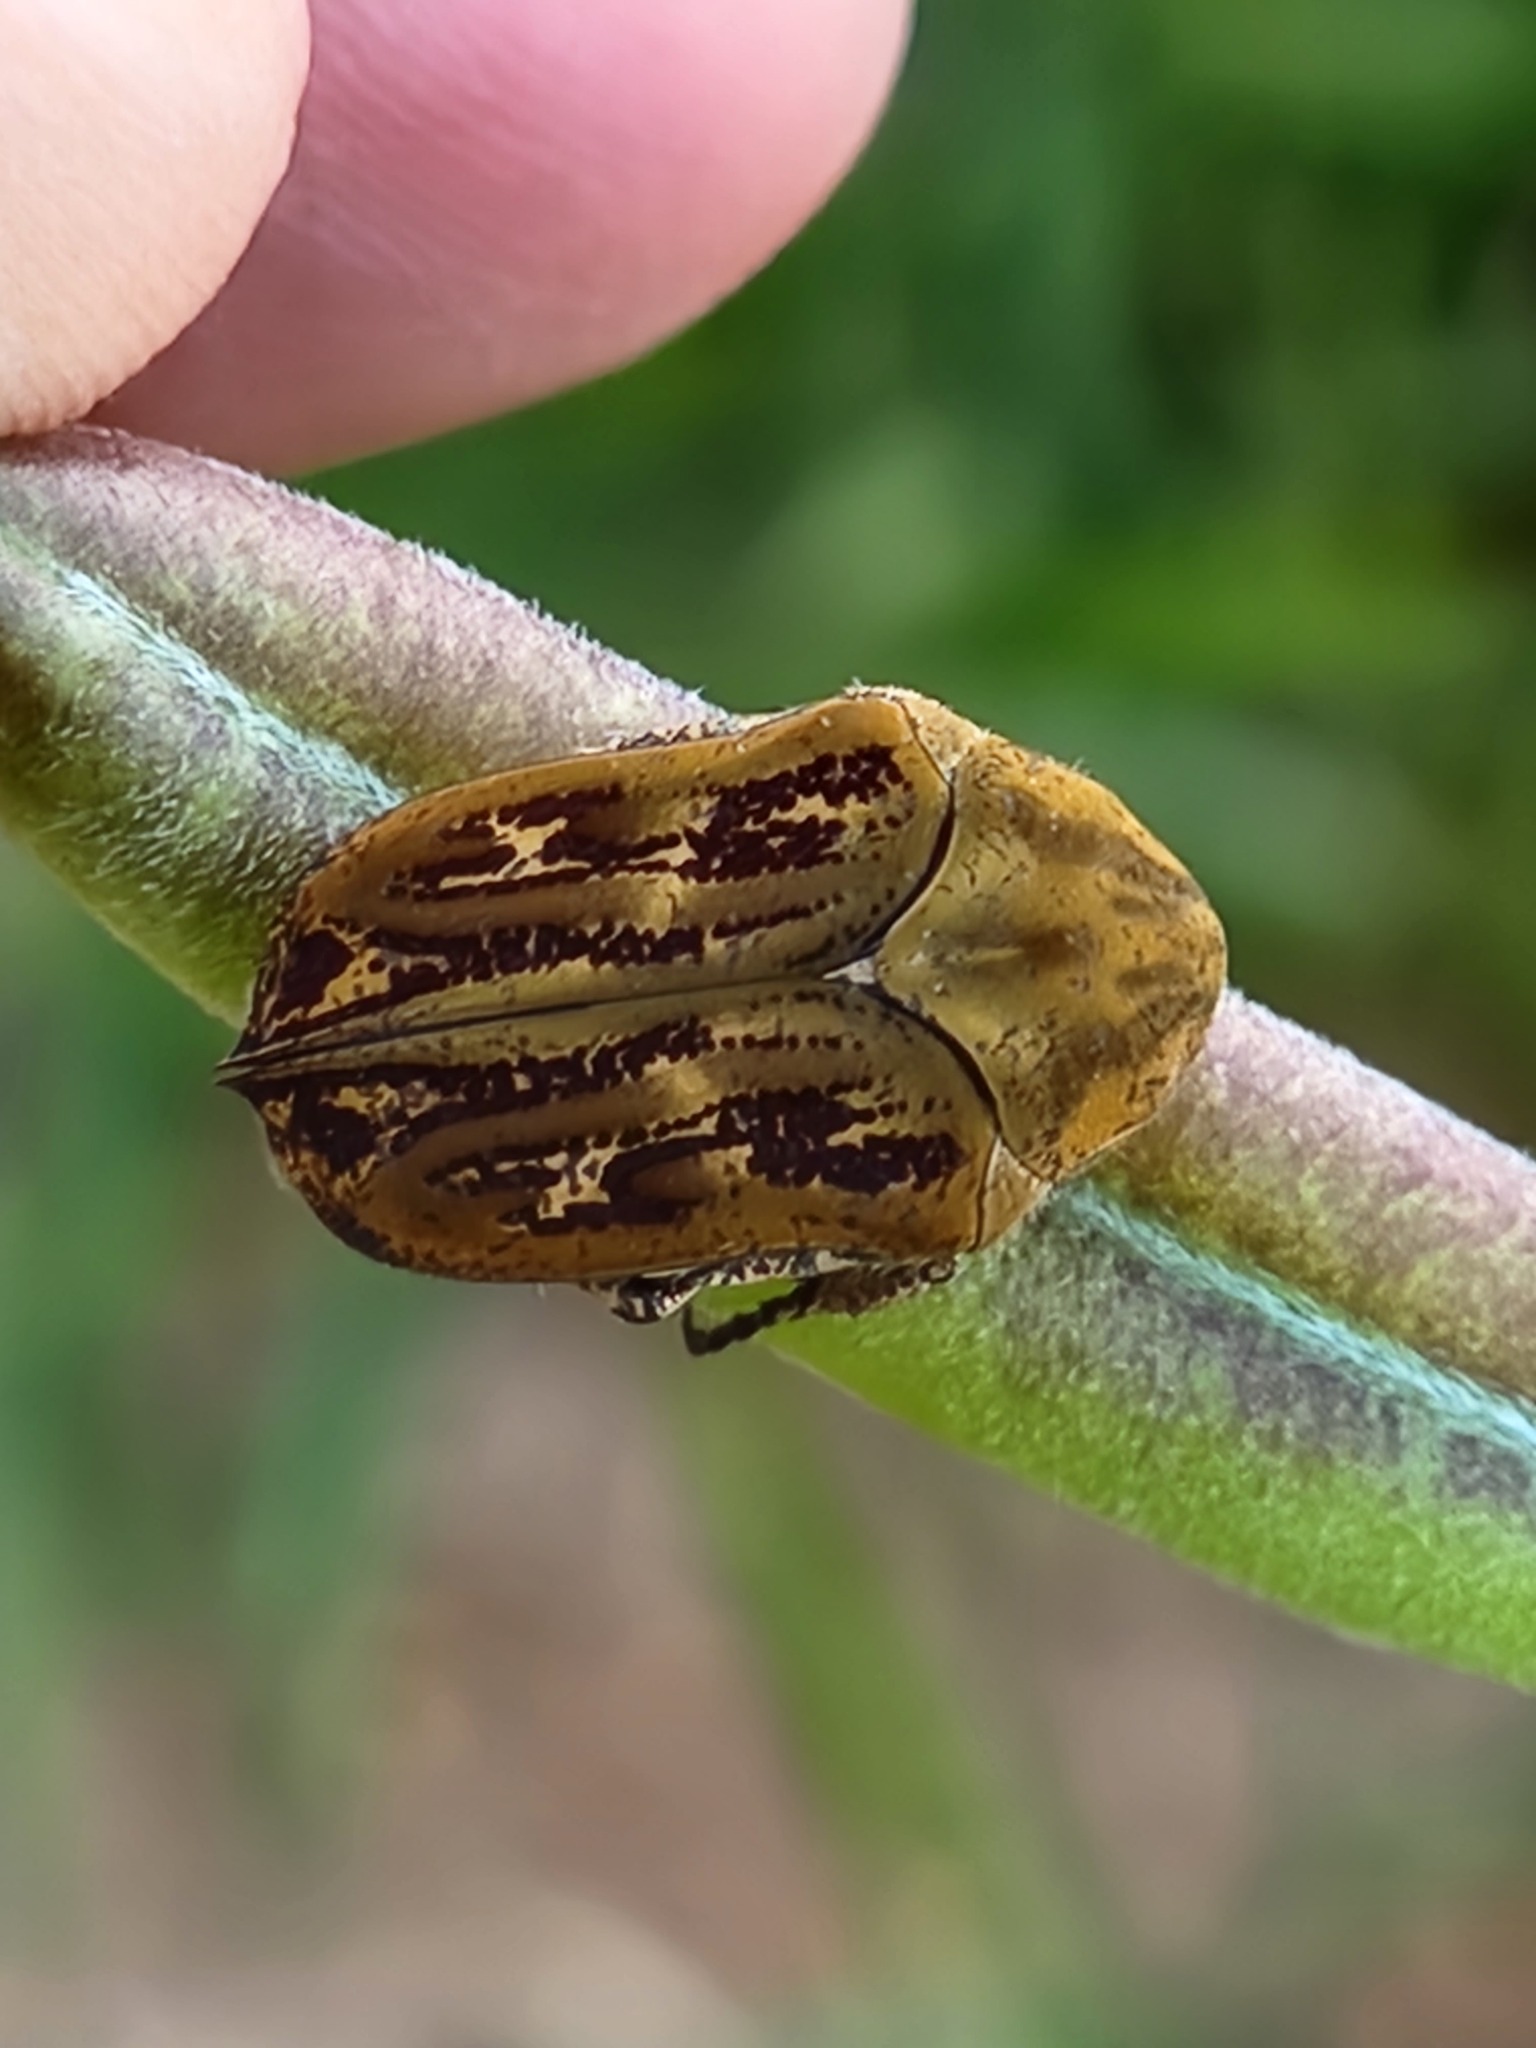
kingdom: Animalia
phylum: Arthropoda
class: Insecta
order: Coleoptera
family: Scarabaeidae
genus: Hoplopyga
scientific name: Hoplopyga albiventris
